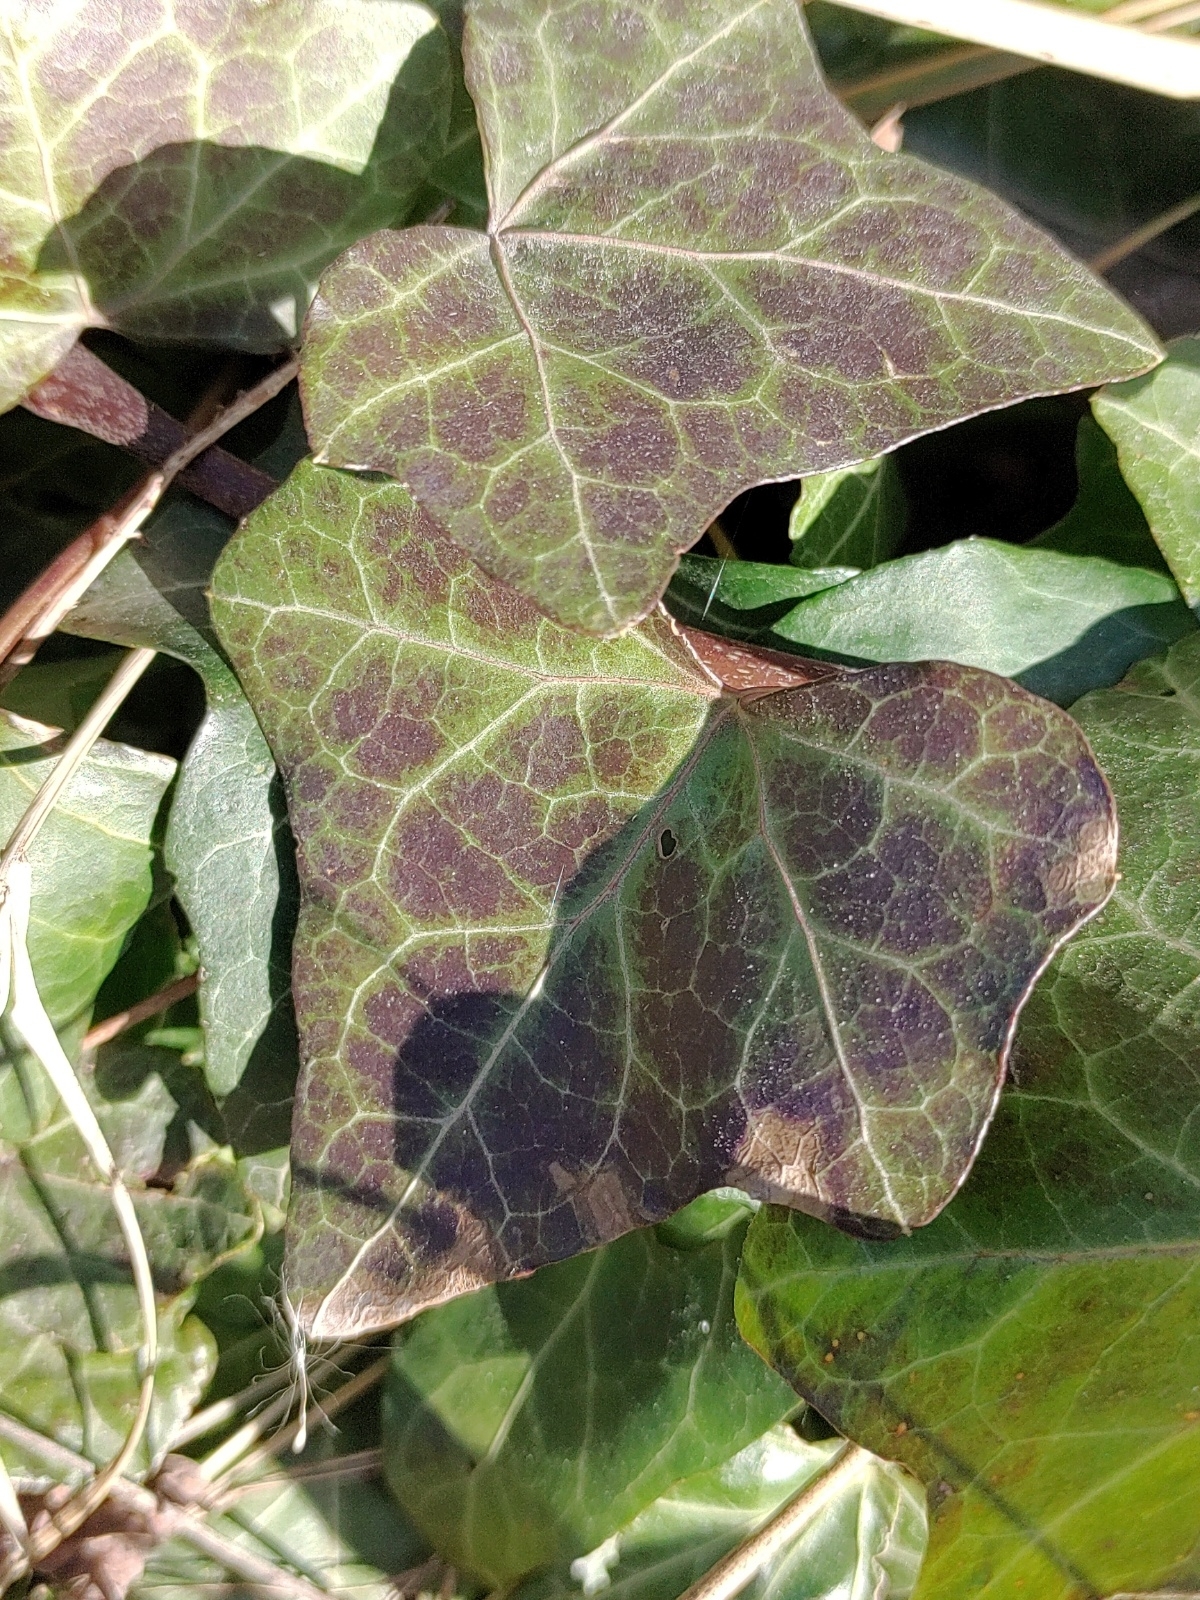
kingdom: Plantae
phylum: Tracheophyta
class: Magnoliopsida
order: Apiales
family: Araliaceae
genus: Hedera
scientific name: Hedera helix
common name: Ivy
